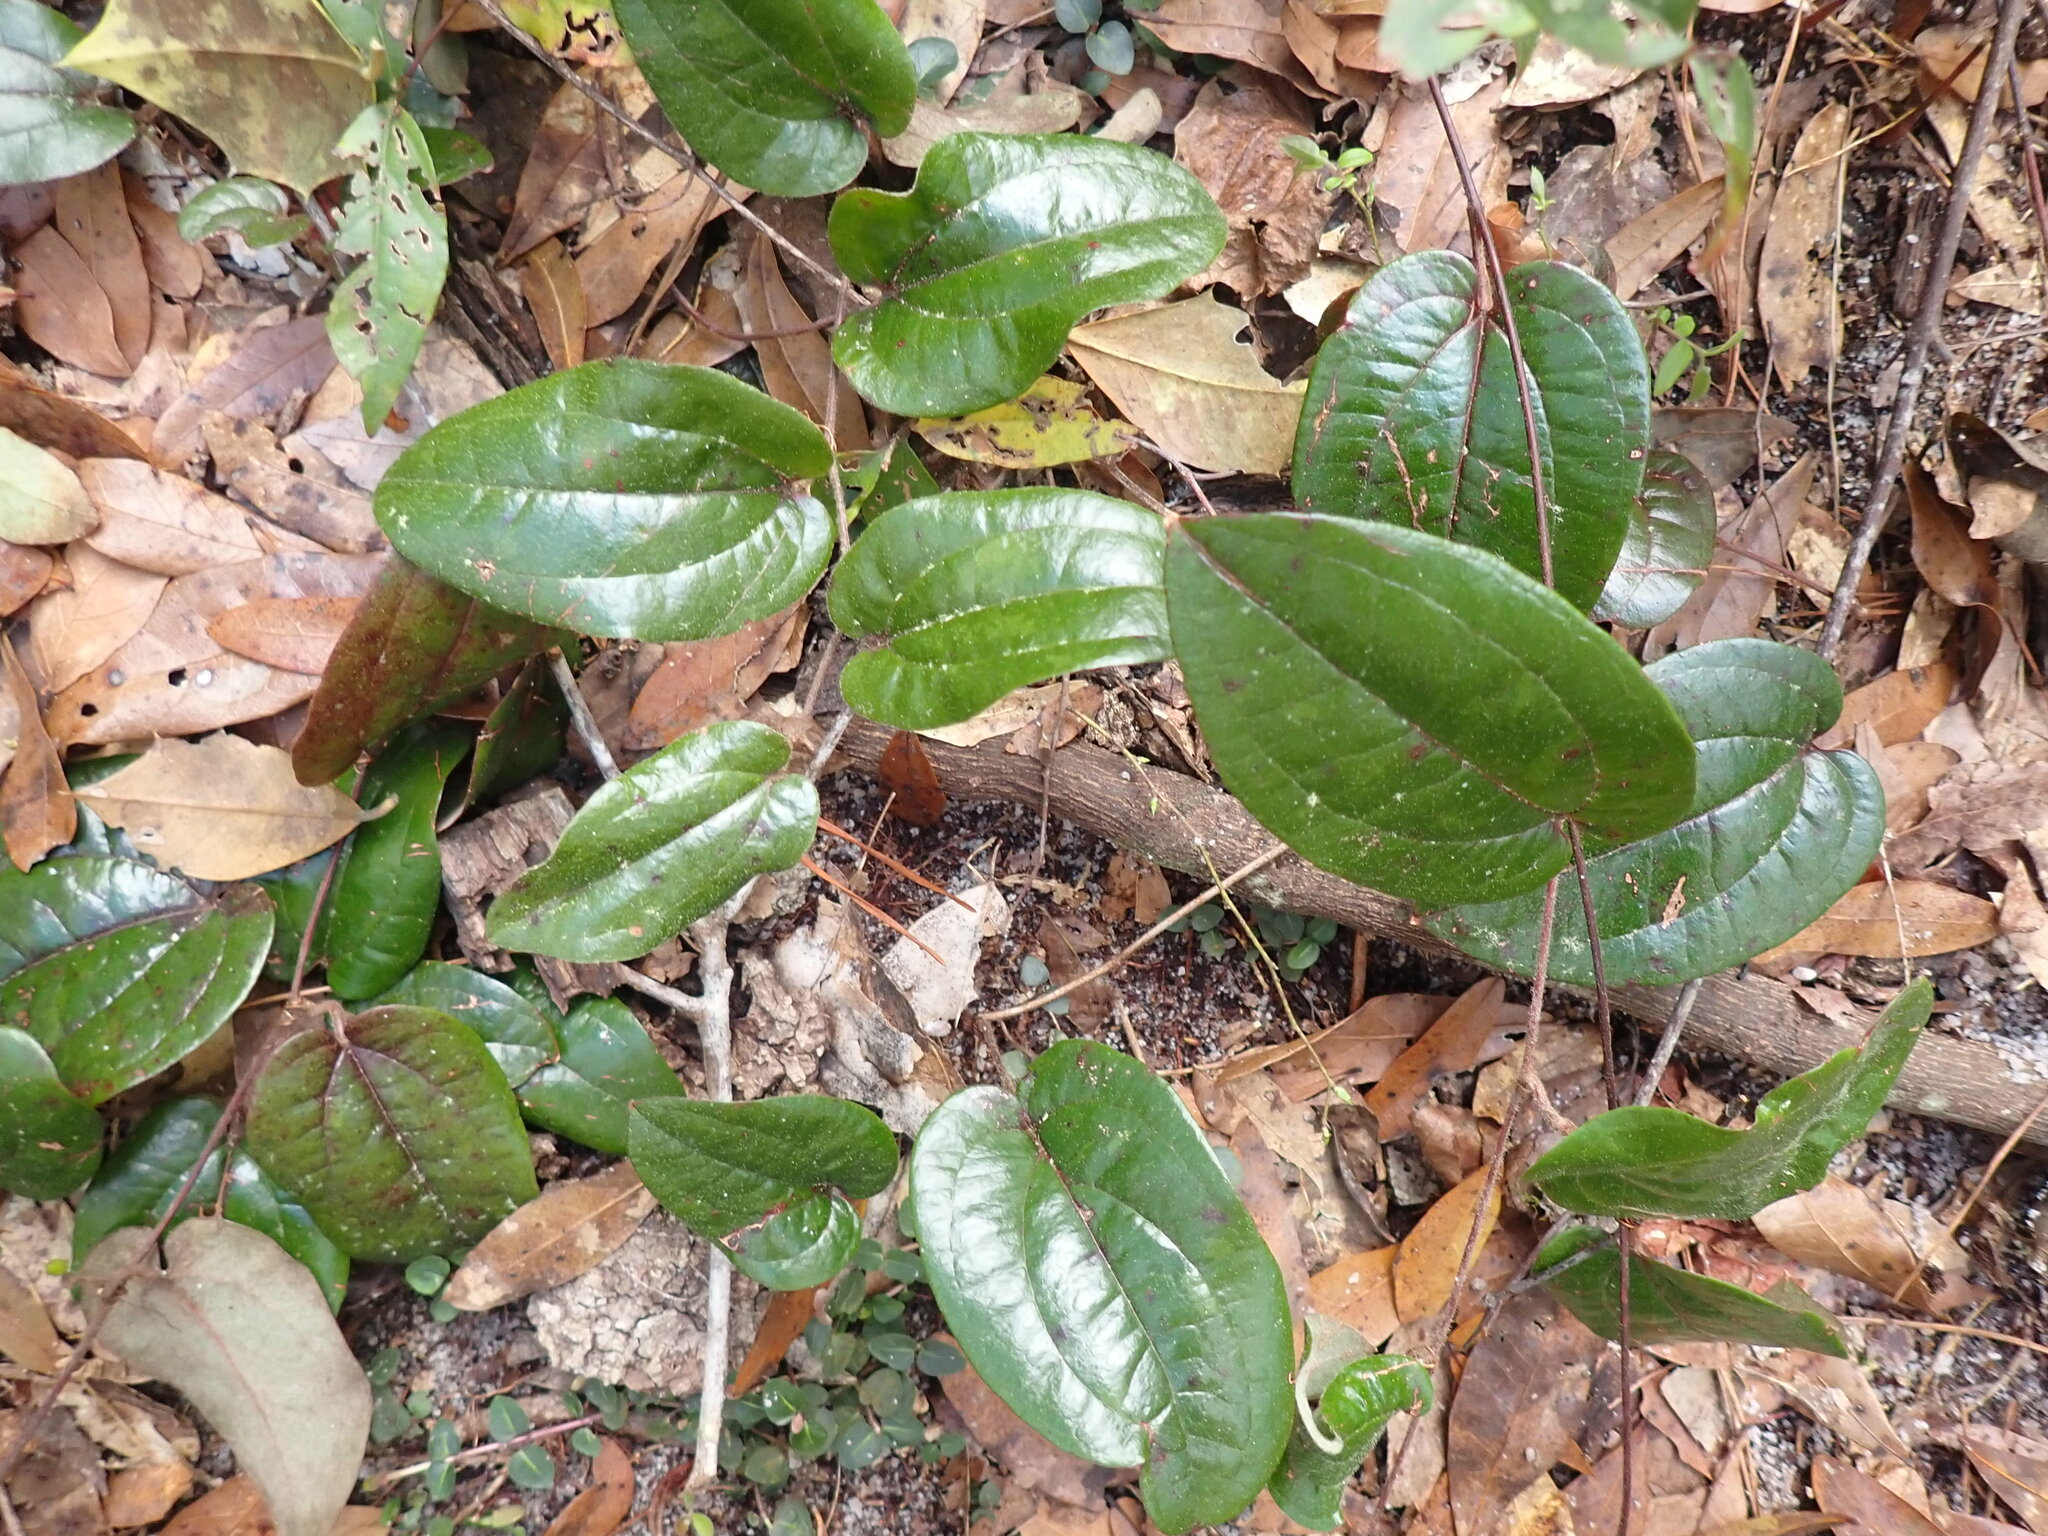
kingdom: Plantae
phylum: Tracheophyta
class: Liliopsida
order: Liliales
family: Smilacaceae
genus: Smilax
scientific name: Smilax pumila
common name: Sarsaparilla-vine
